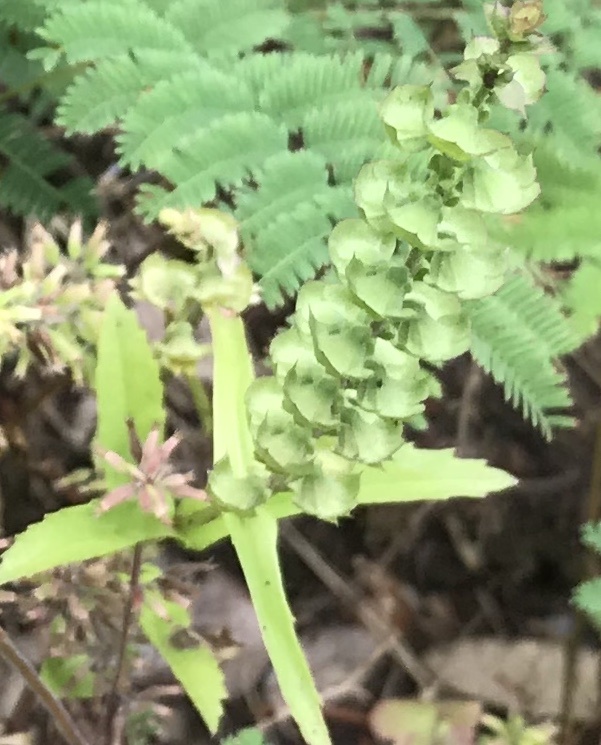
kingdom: Plantae
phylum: Tracheophyta
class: Magnoliopsida
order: Lamiales
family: Lamiaceae
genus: Warnockia
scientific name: Warnockia scutellarioides
